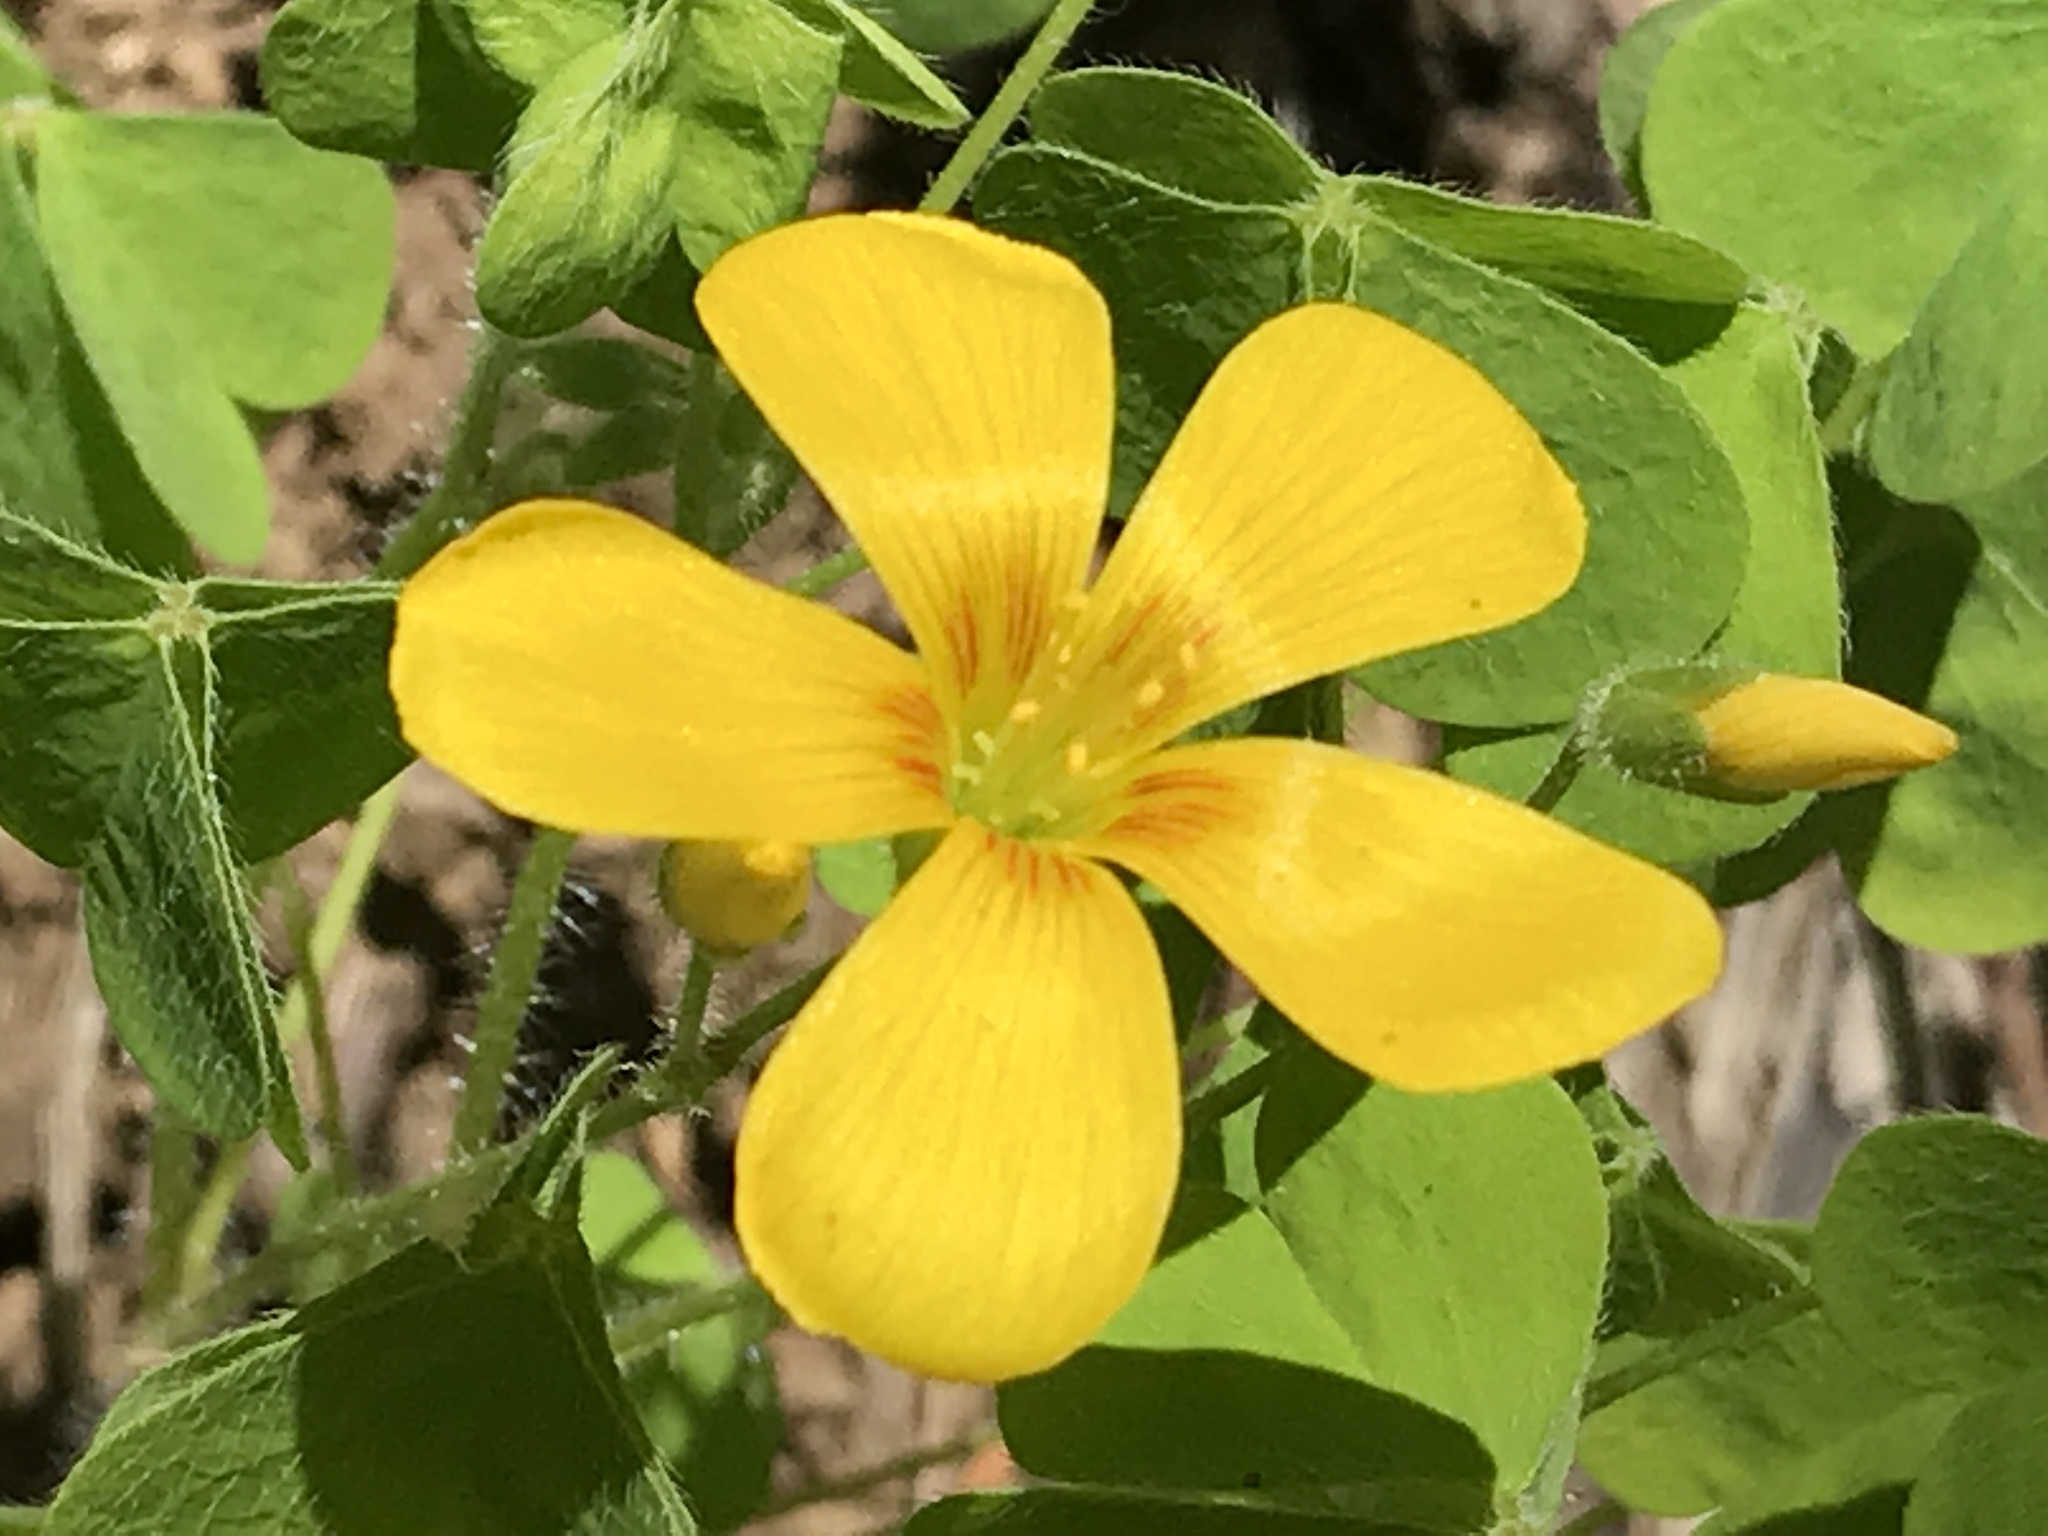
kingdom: Plantae
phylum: Tracheophyta
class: Magnoliopsida
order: Oxalidales
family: Oxalidaceae
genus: Oxalis
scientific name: Oxalis suksdorfii
